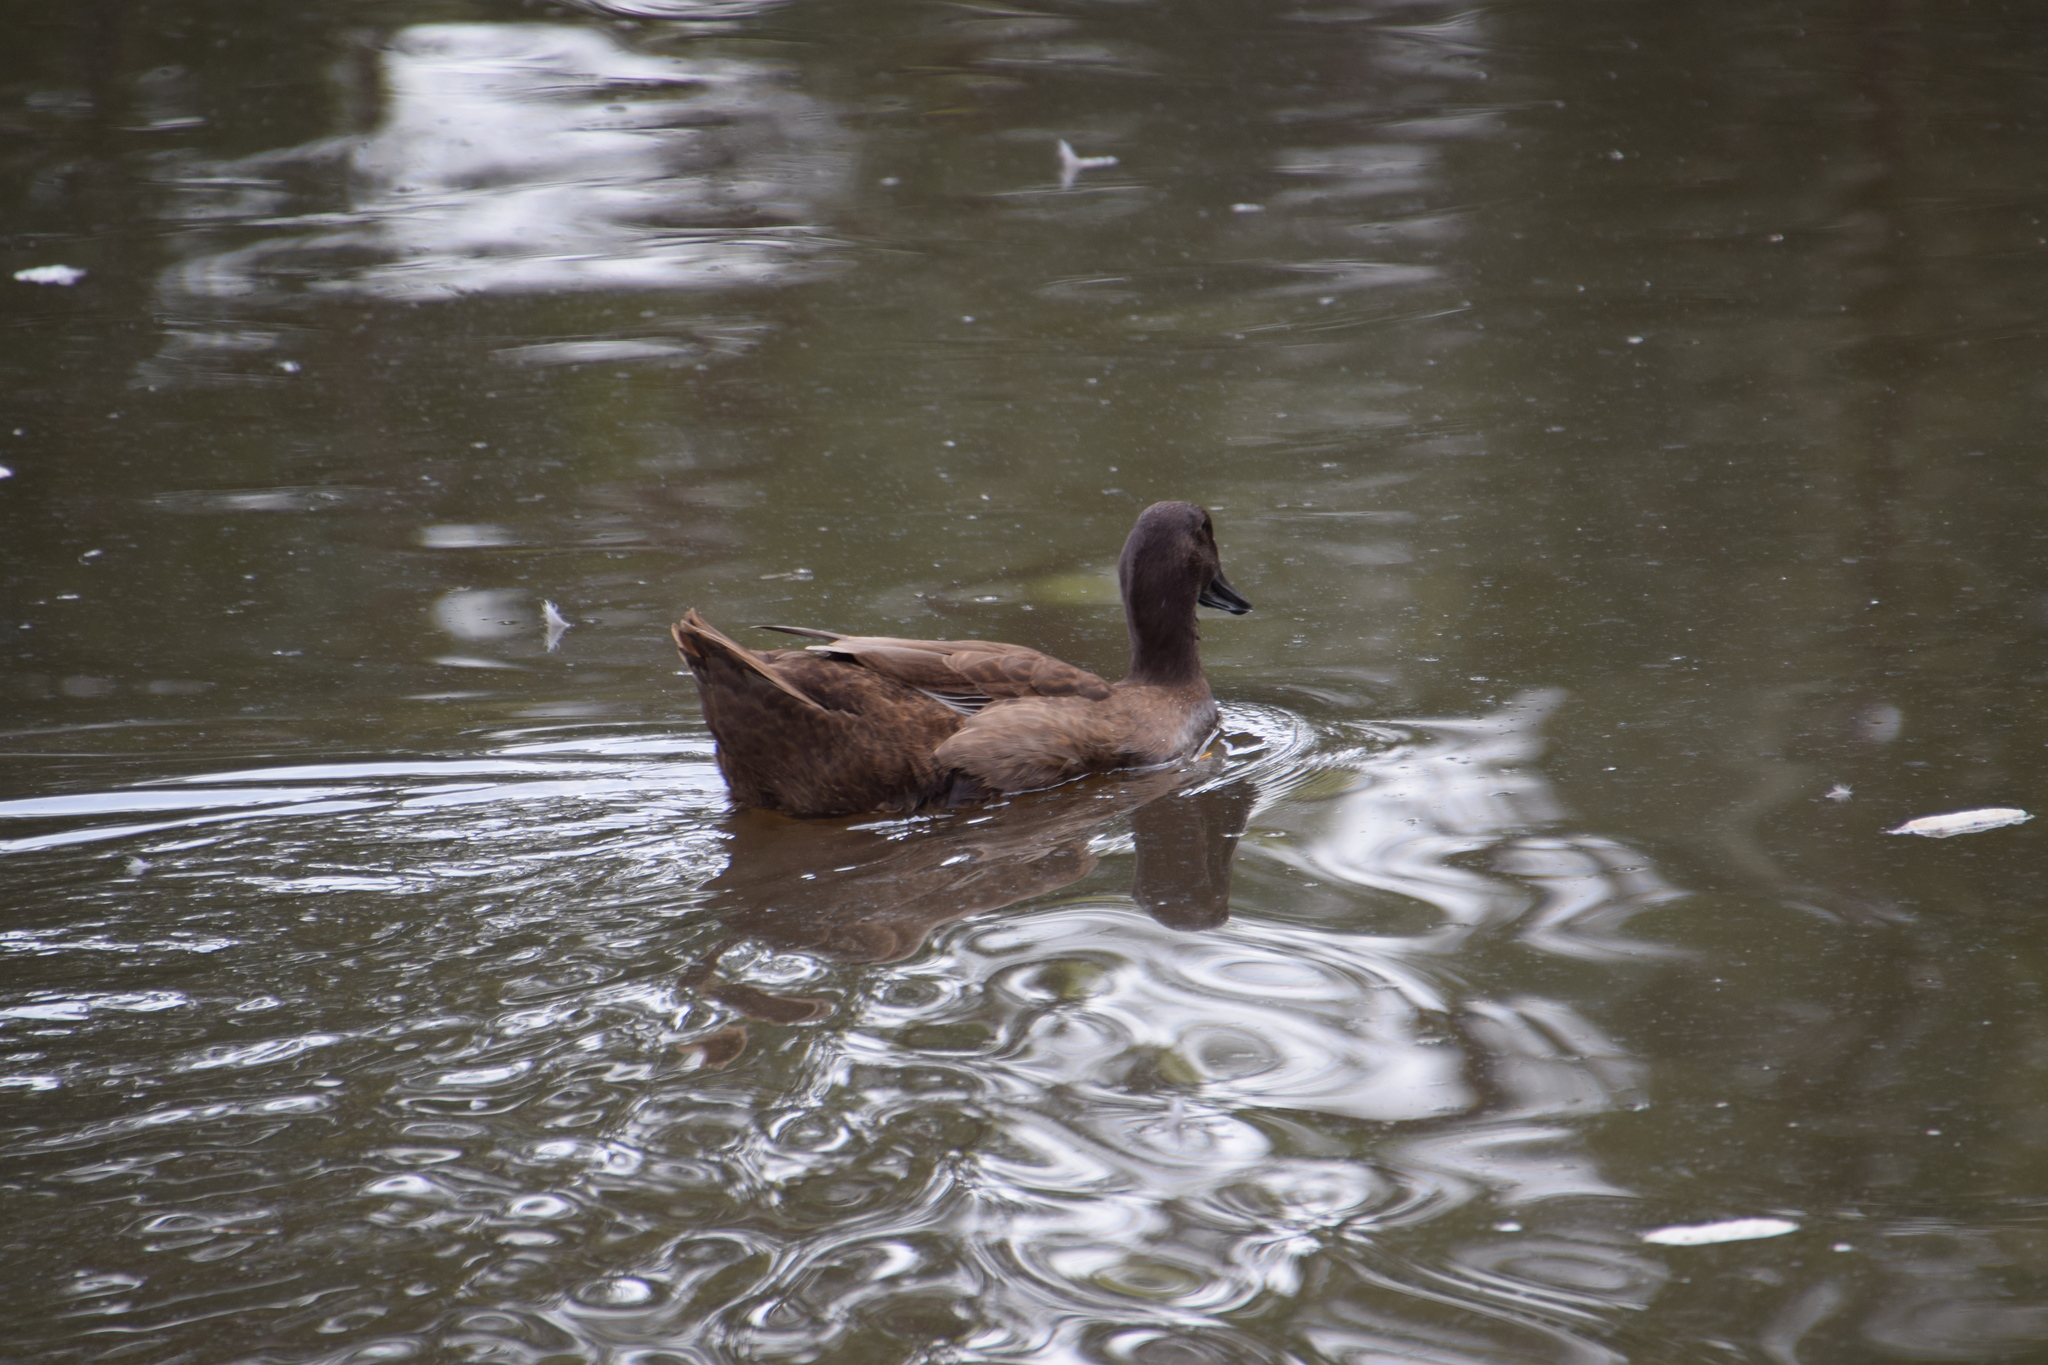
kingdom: Animalia
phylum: Chordata
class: Aves
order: Anseriformes
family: Anatidae
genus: Anas
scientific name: Anas platyrhynchos
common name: Mallard
